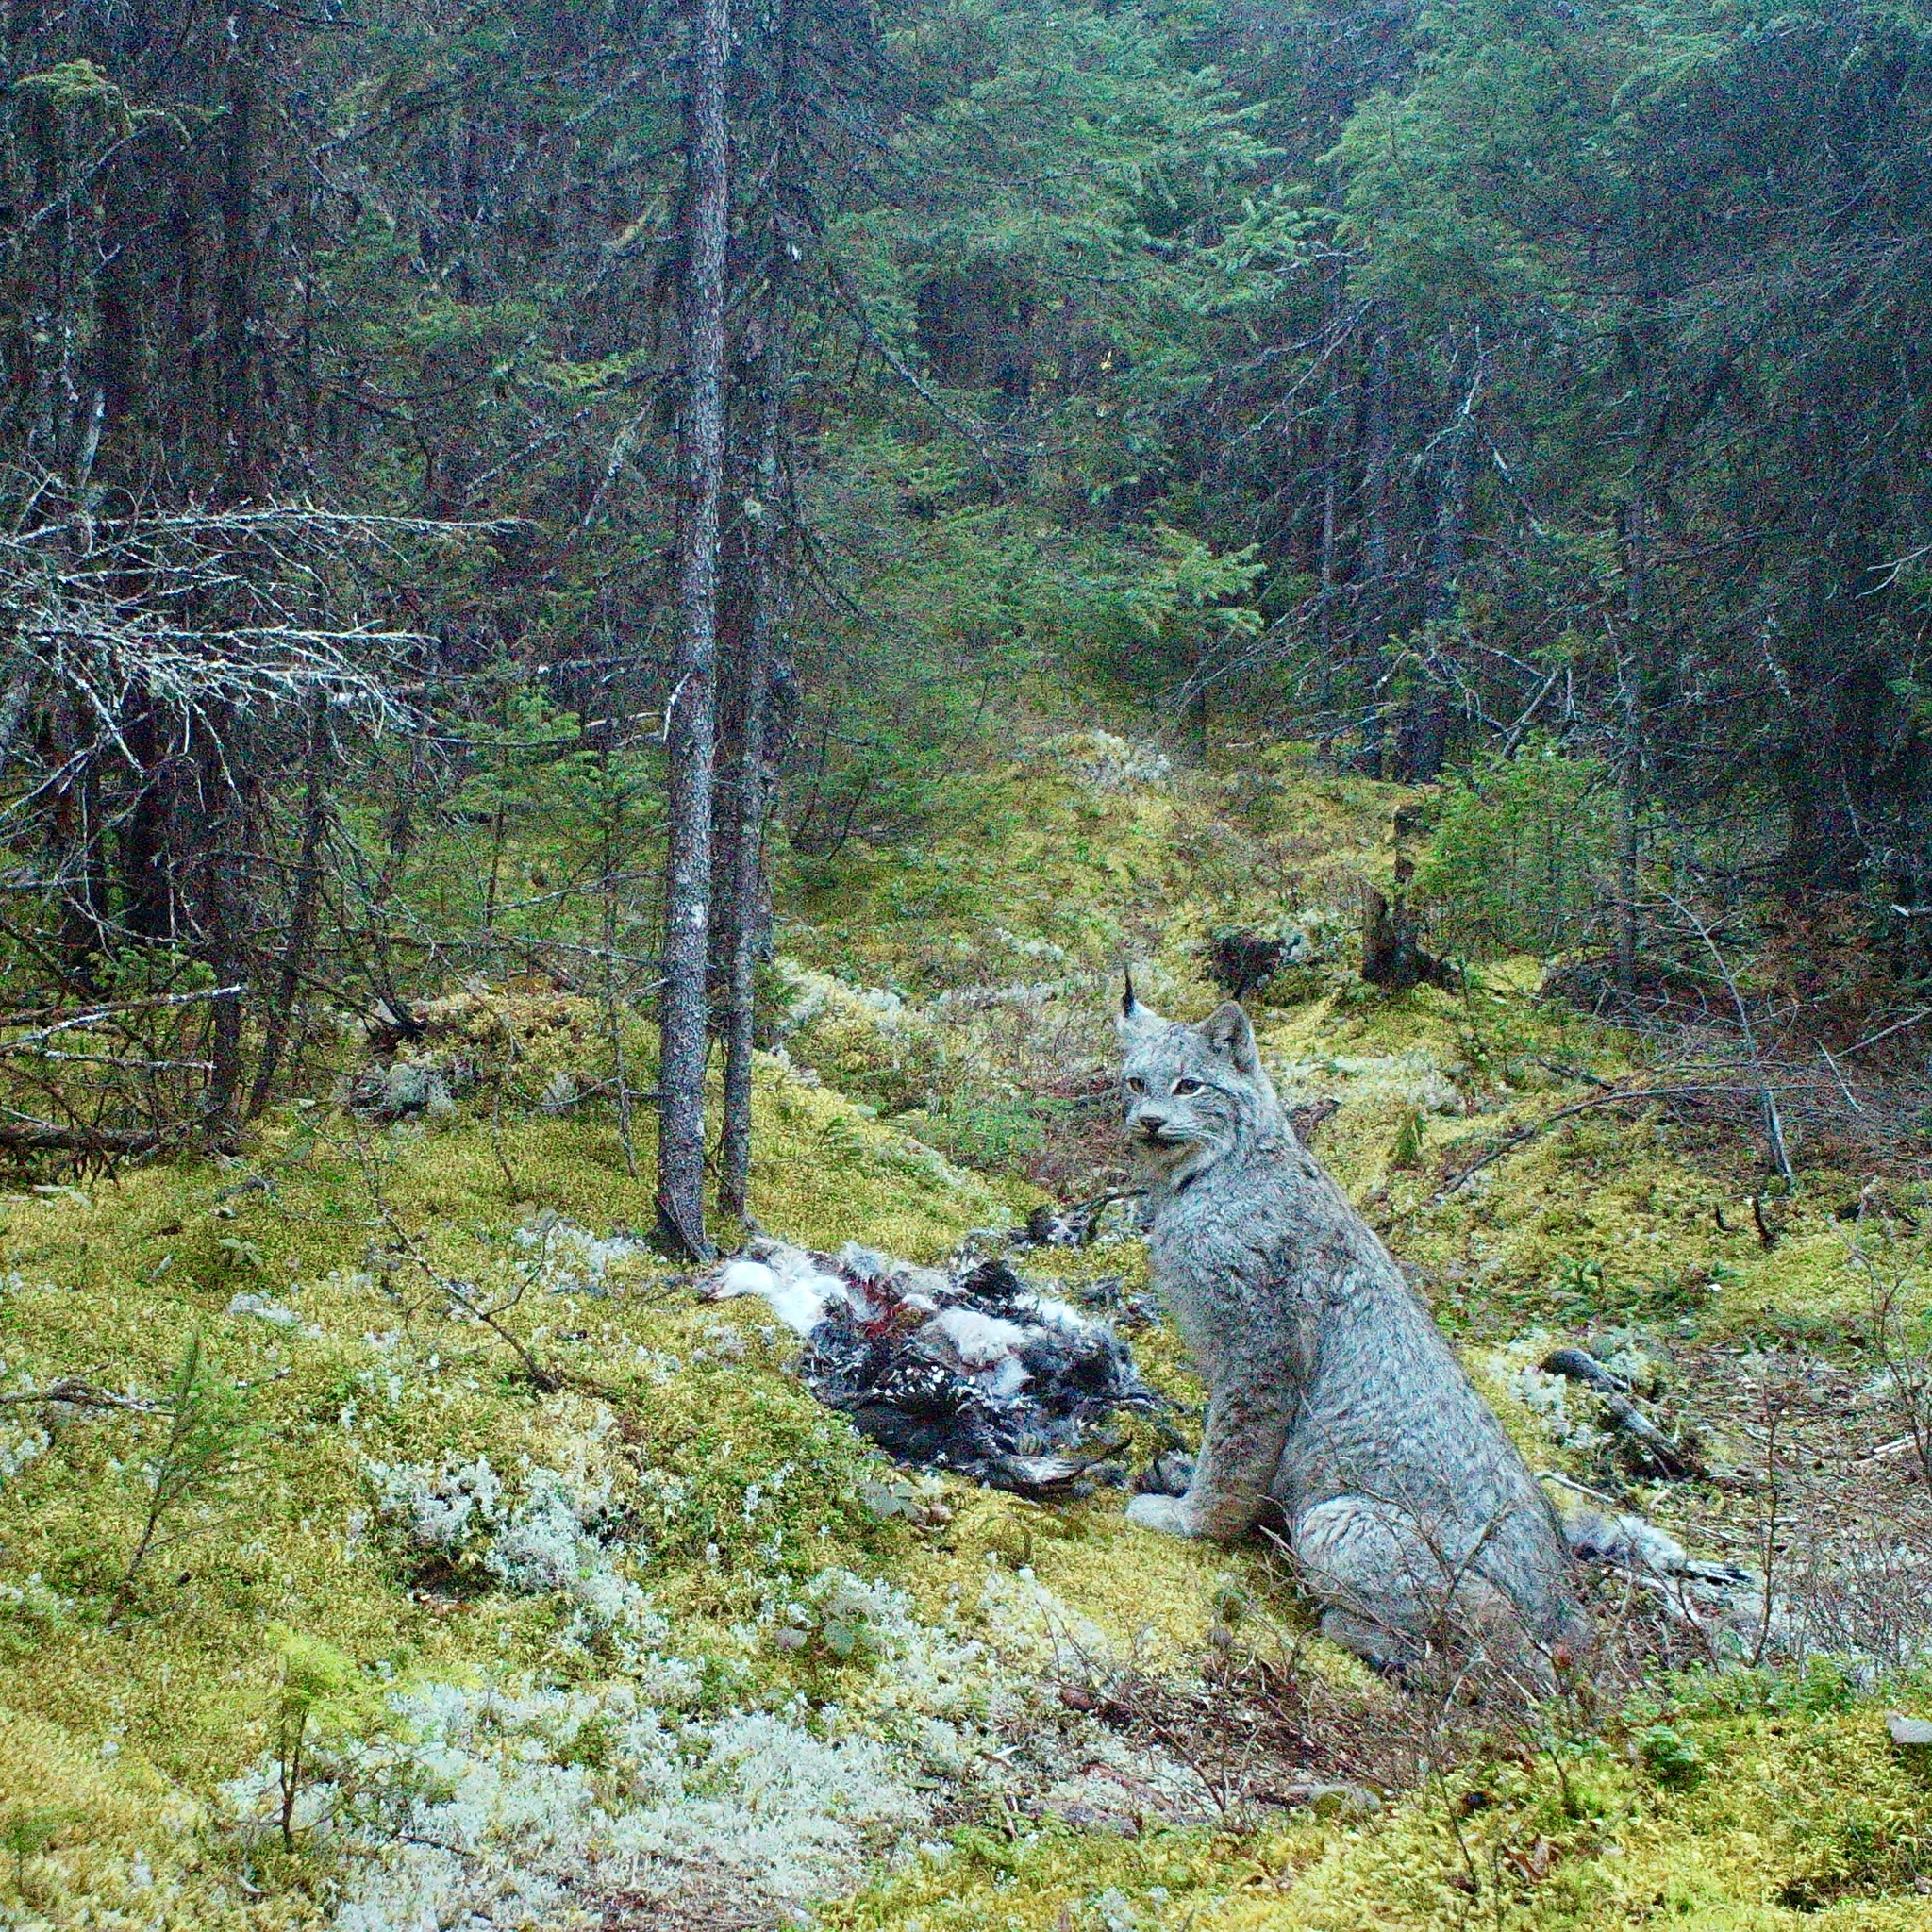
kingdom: Animalia
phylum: Chordata
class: Mammalia
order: Carnivora
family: Felidae
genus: Lynx
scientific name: Lynx canadensis
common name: Canadian lynx
